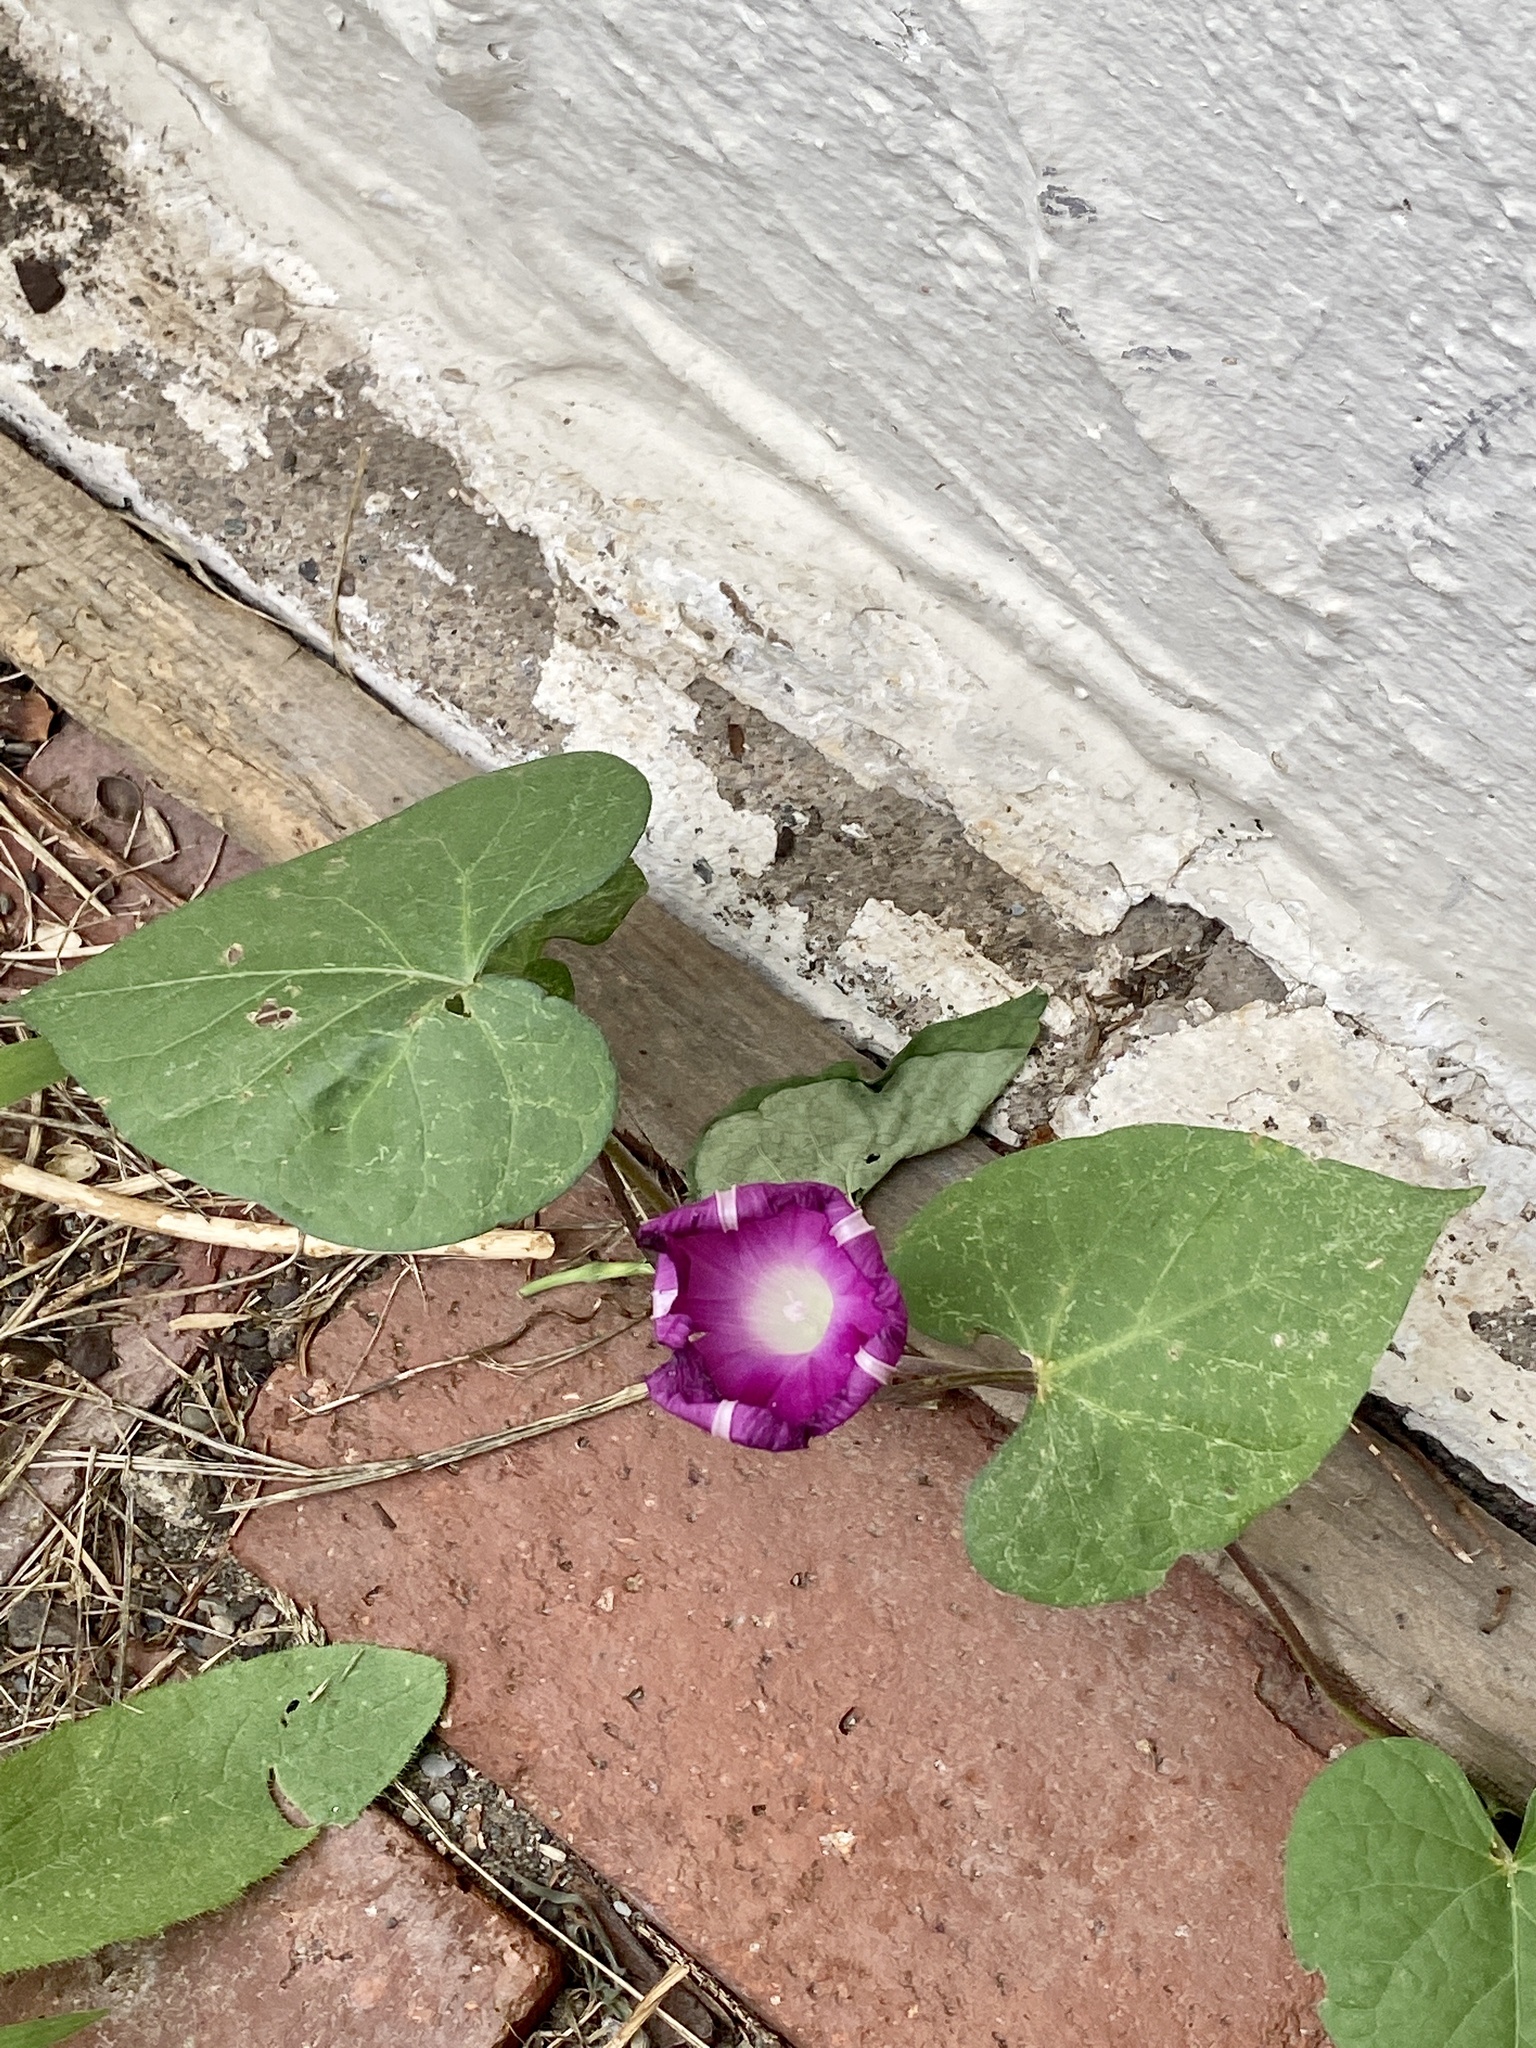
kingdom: Plantae
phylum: Tracheophyta
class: Magnoliopsida
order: Solanales
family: Convolvulaceae
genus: Ipomoea
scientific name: Ipomoea purpurea
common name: Common morning-glory
